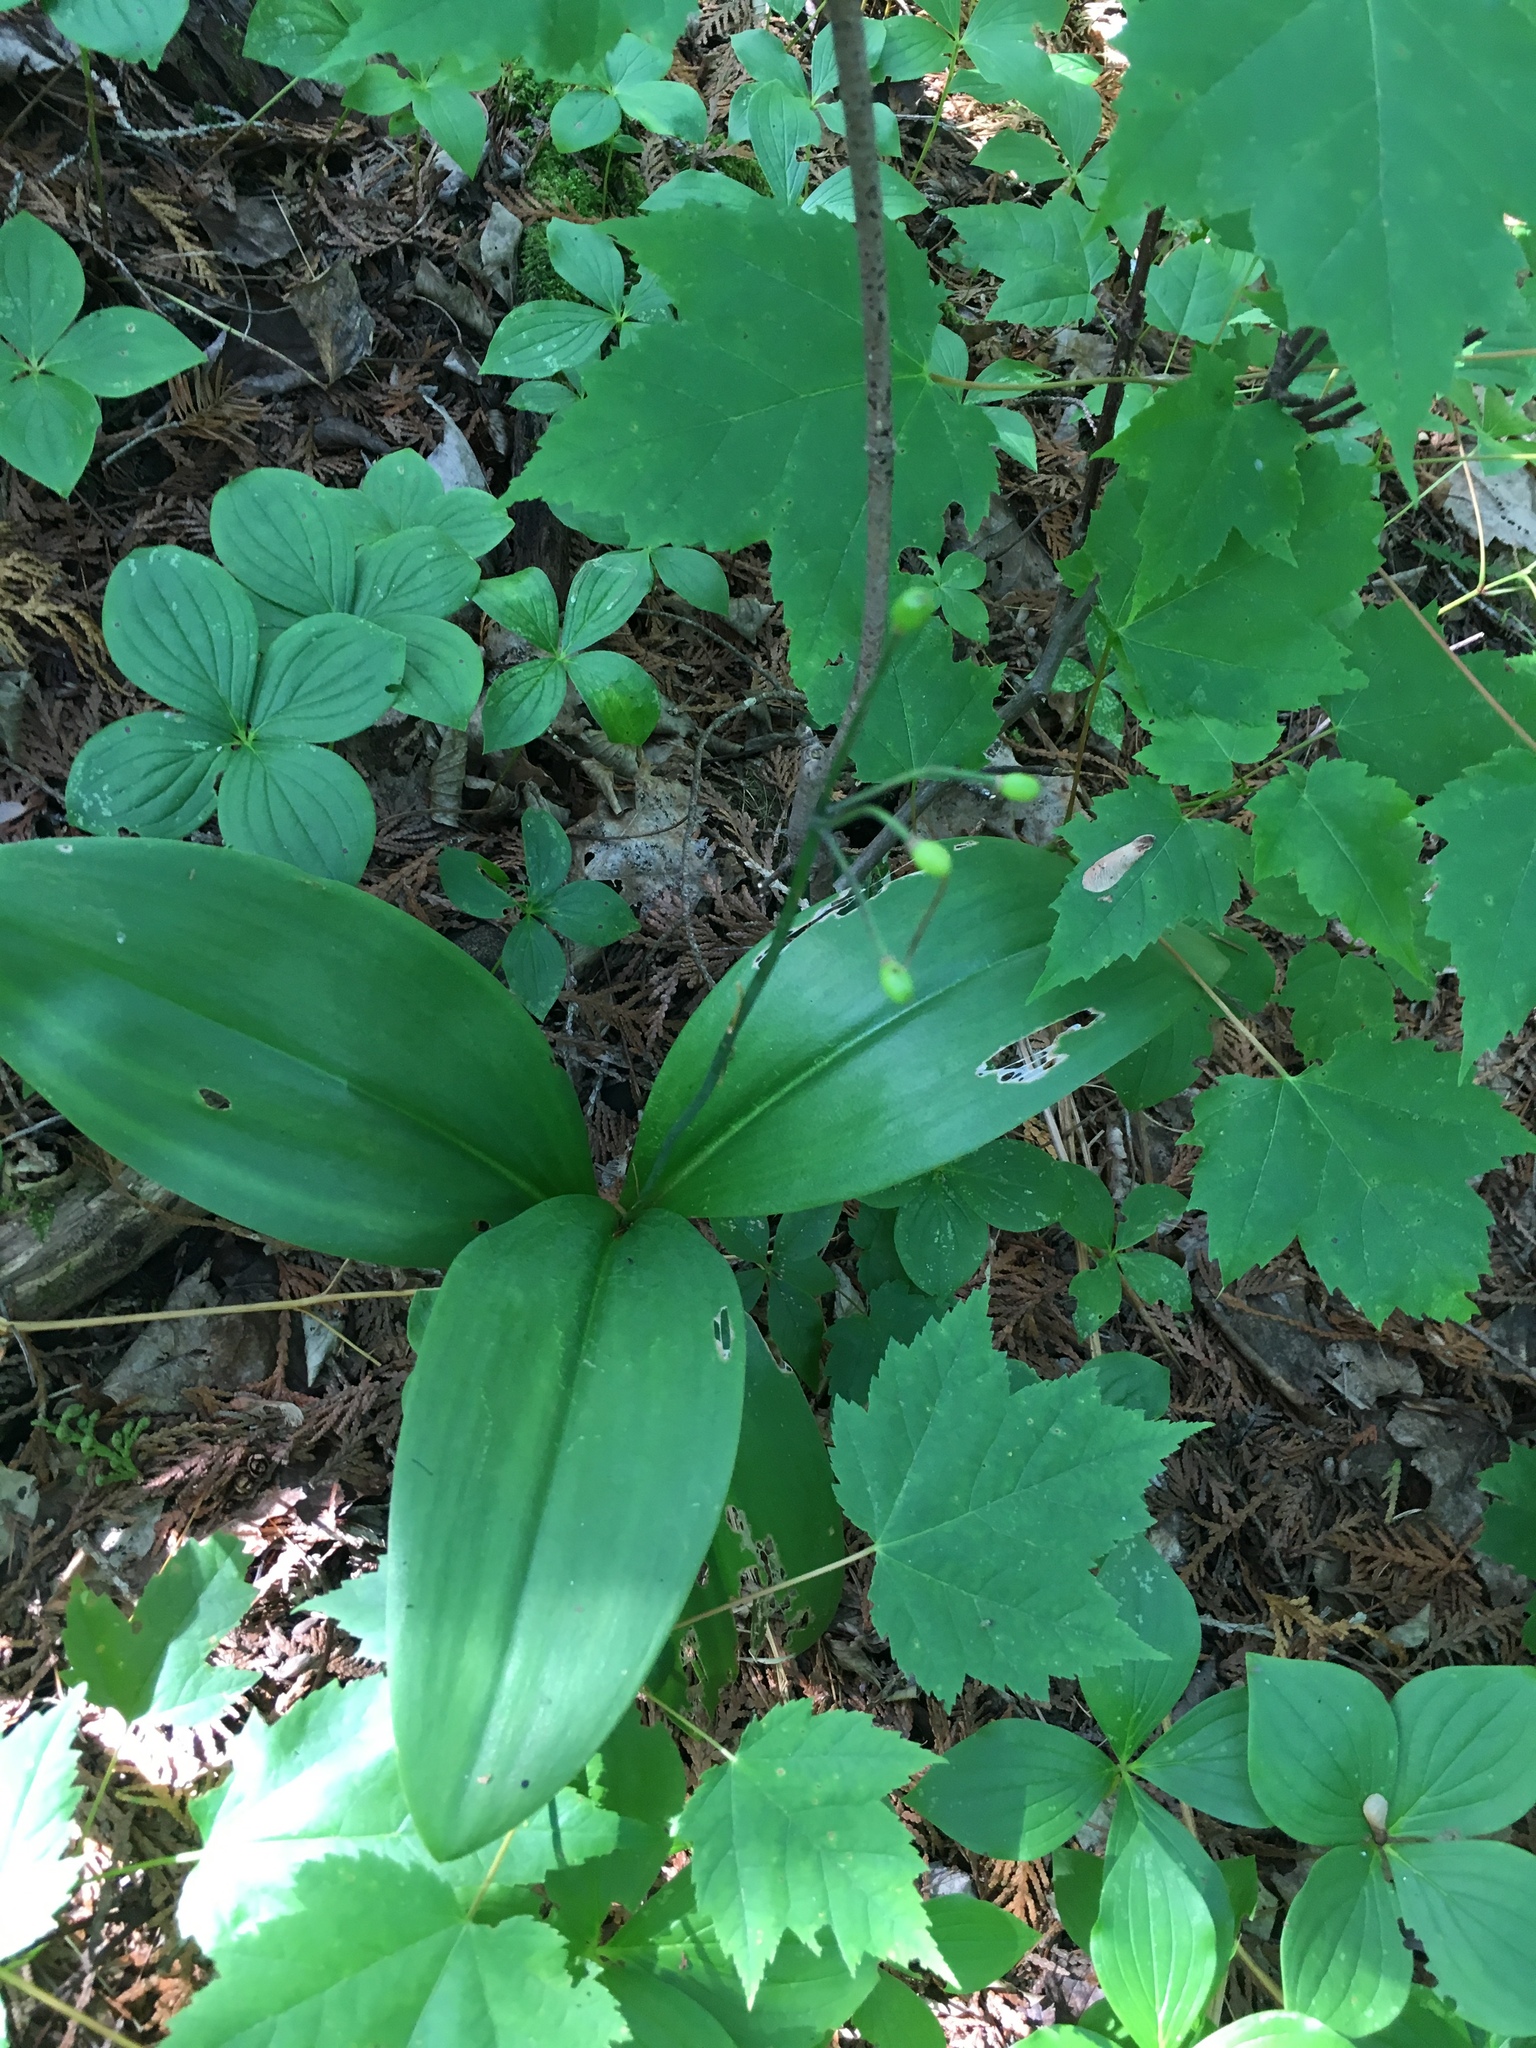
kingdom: Plantae
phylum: Tracheophyta
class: Liliopsida
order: Liliales
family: Liliaceae
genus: Clintonia
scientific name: Clintonia borealis
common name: Yellow clintonia
